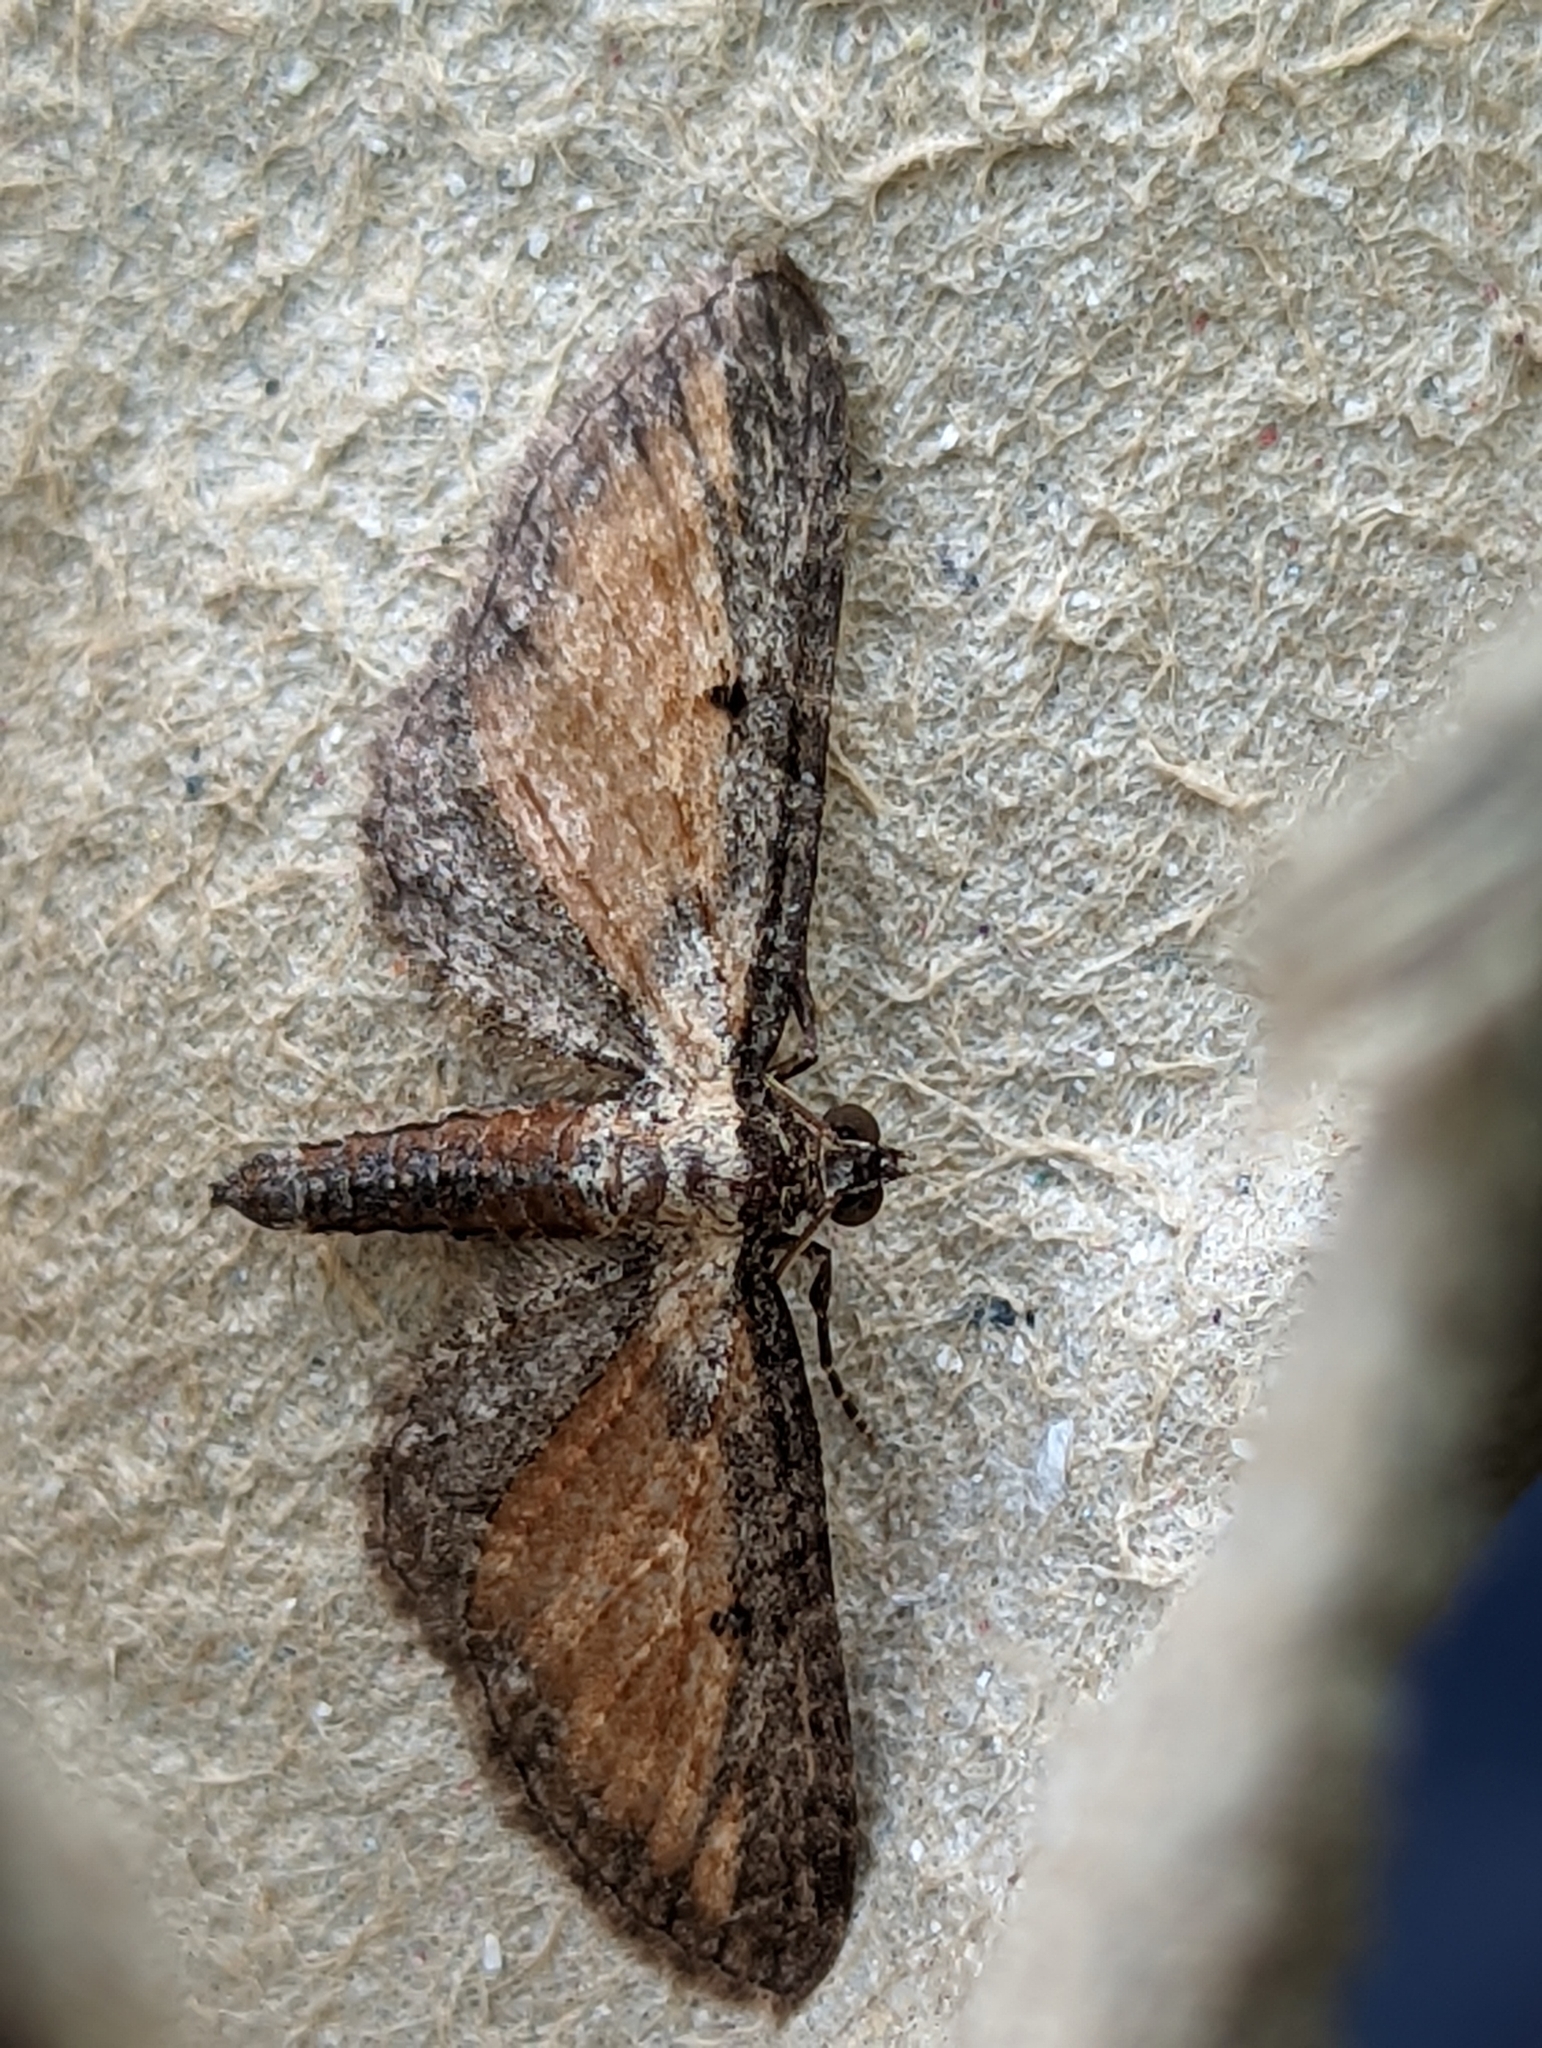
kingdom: Animalia
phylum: Arthropoda
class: Insecta
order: Lepidoptera
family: Geometridae
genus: Eupithecia
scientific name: Eupithecia icterata
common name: Tawny speckled pug
